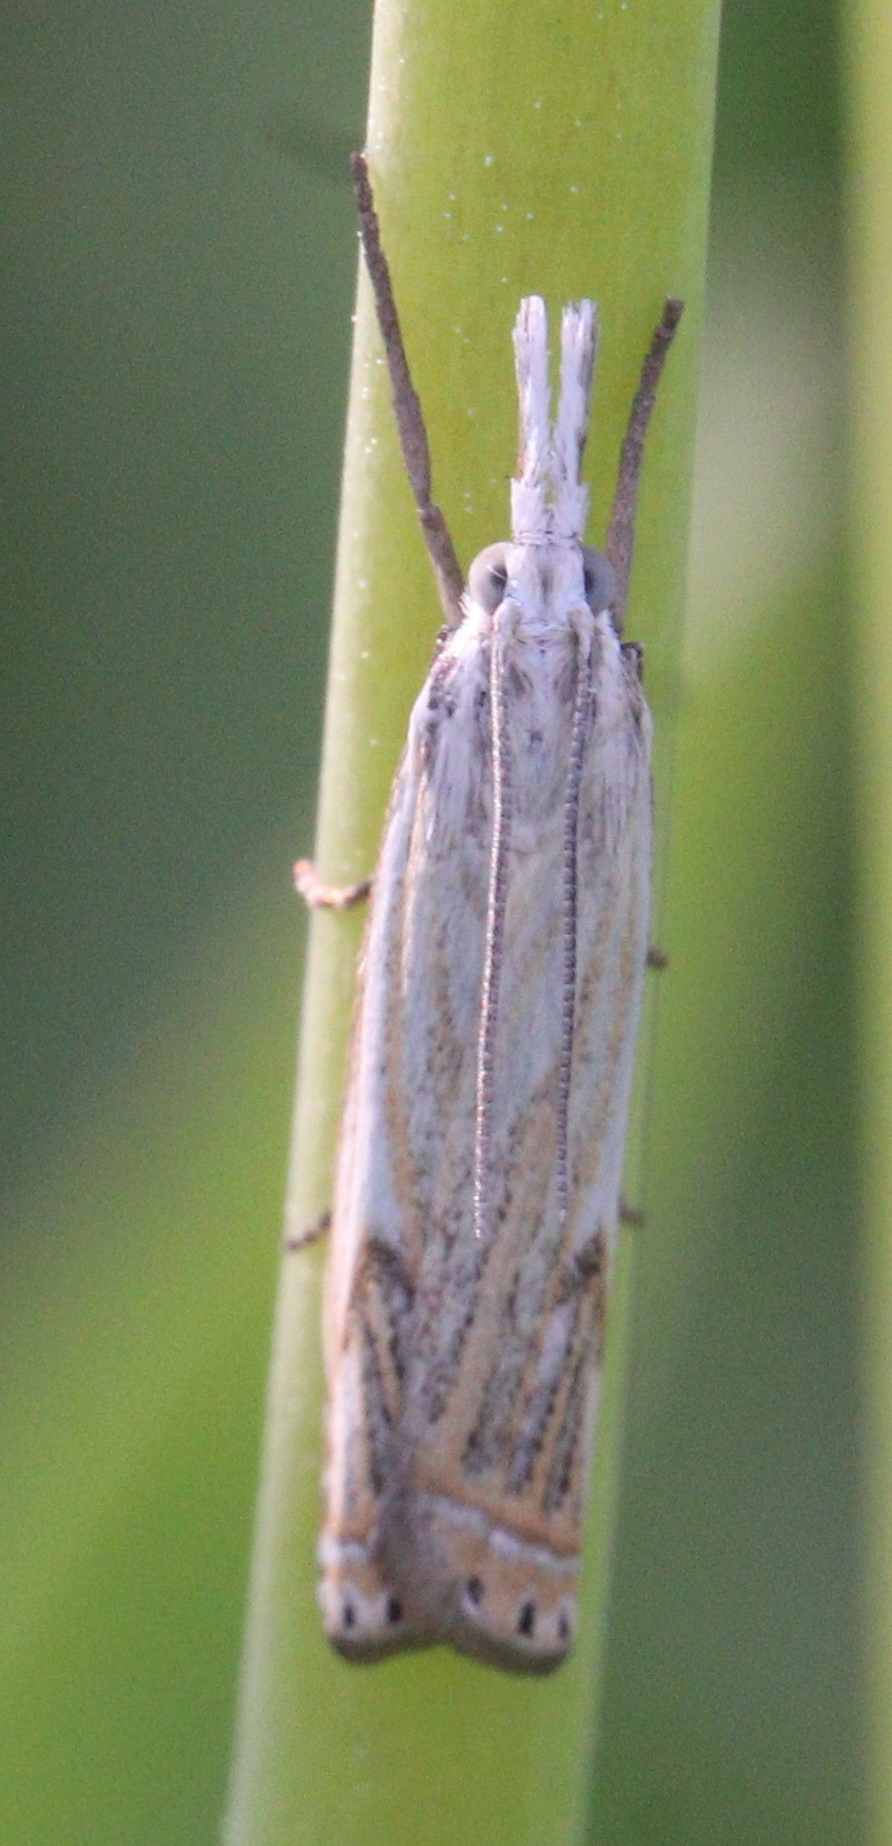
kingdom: Animalia
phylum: Arthropoda
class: Insecta
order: Lepidoptera
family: Crambidae
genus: Crambus
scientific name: Crambus nemorella
